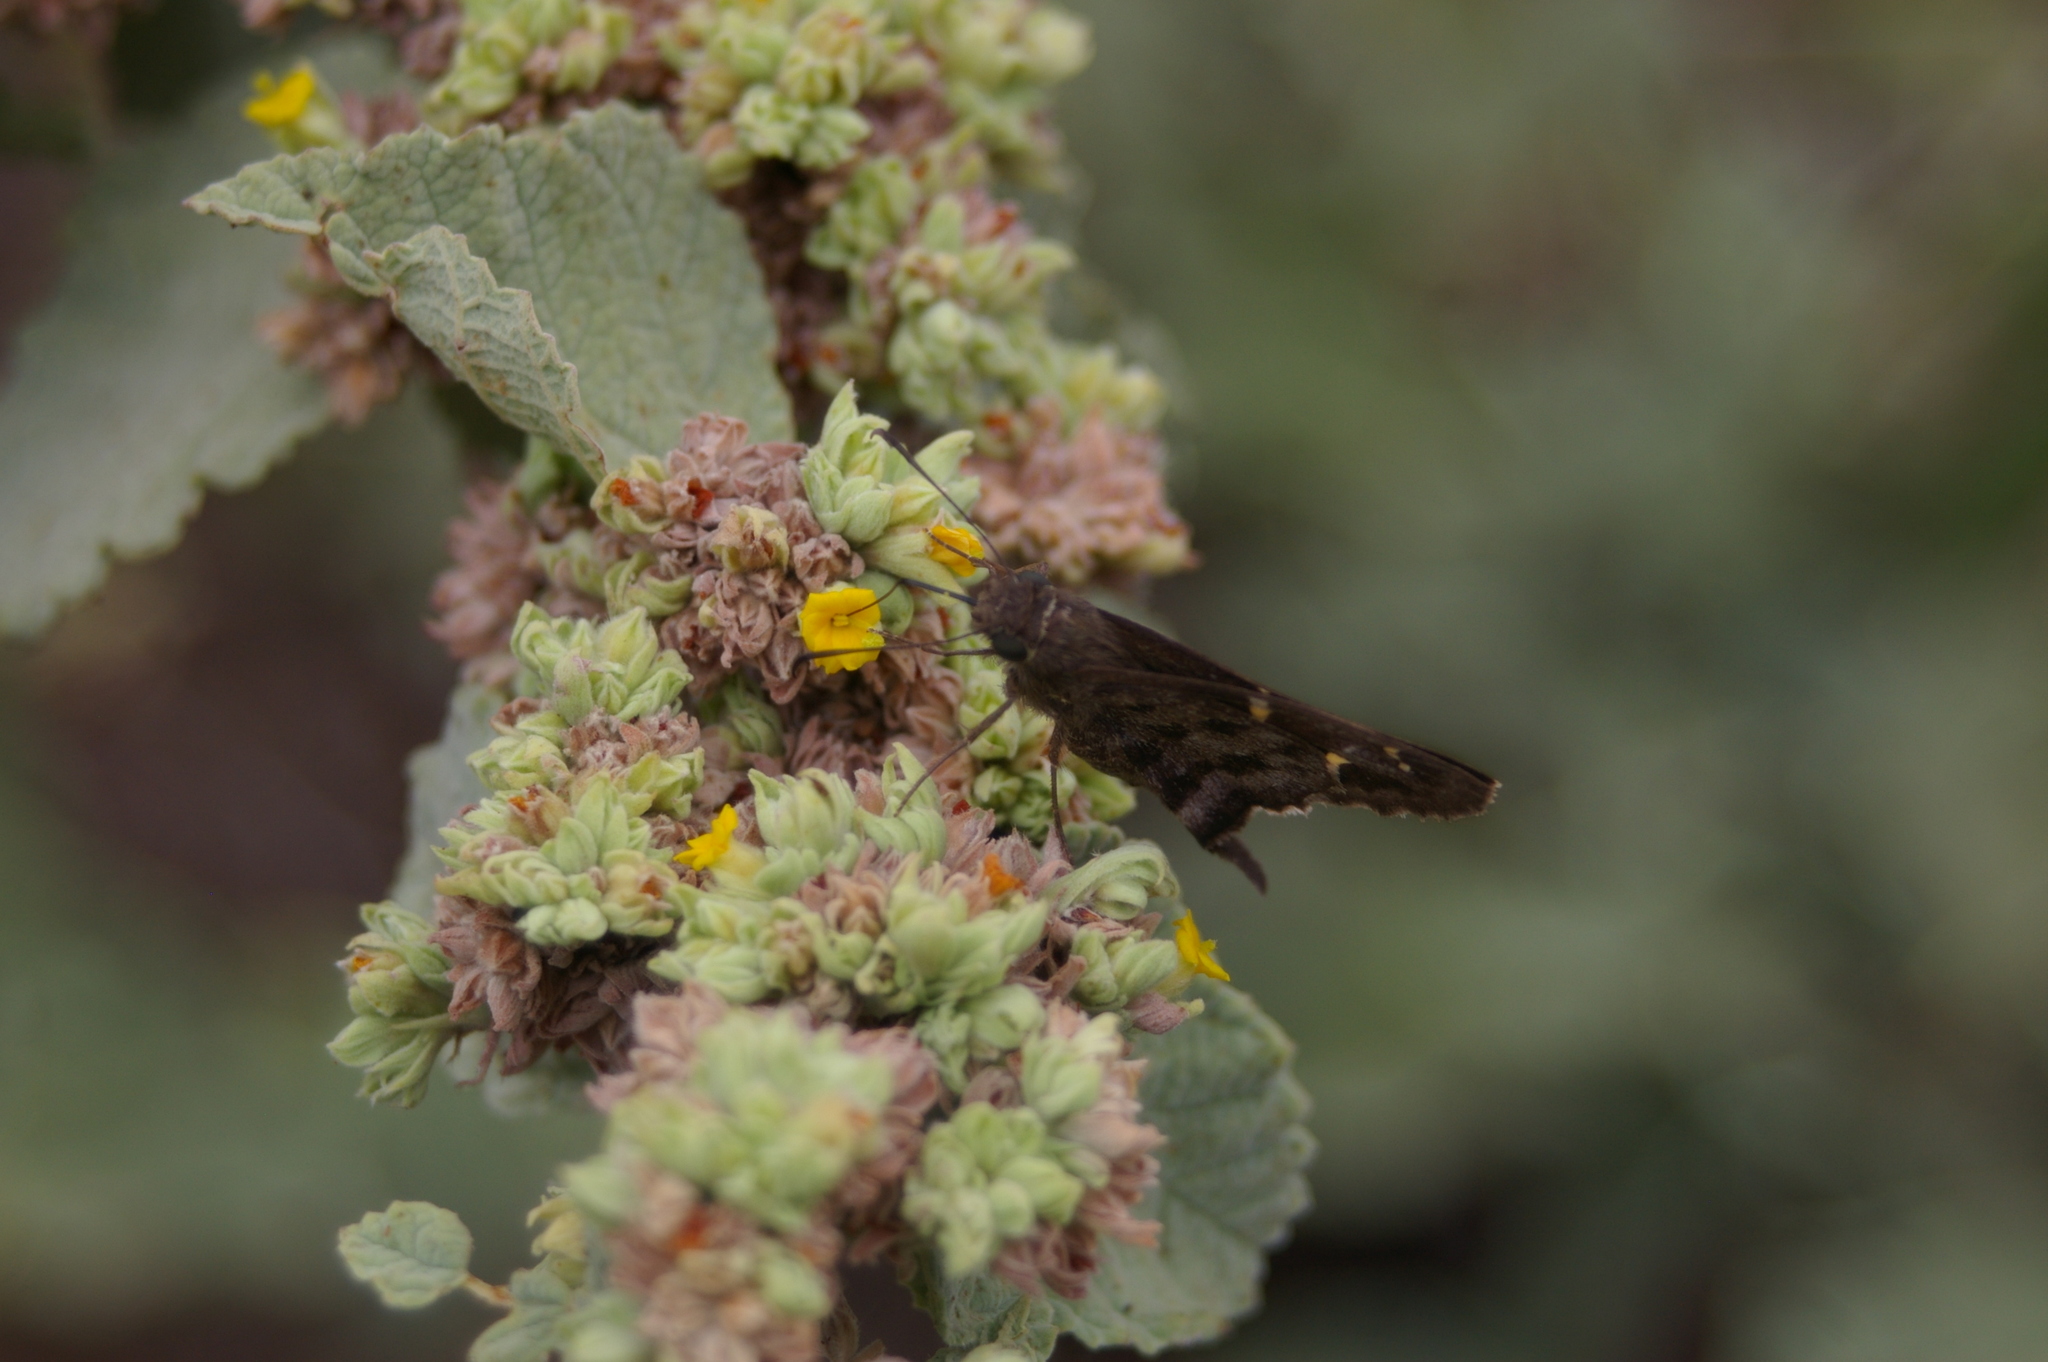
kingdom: Animalia
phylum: Arthropoda
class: Insecta
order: Lepidoptera
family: Hesperiidae
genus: Thorybes
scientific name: Thorybes
